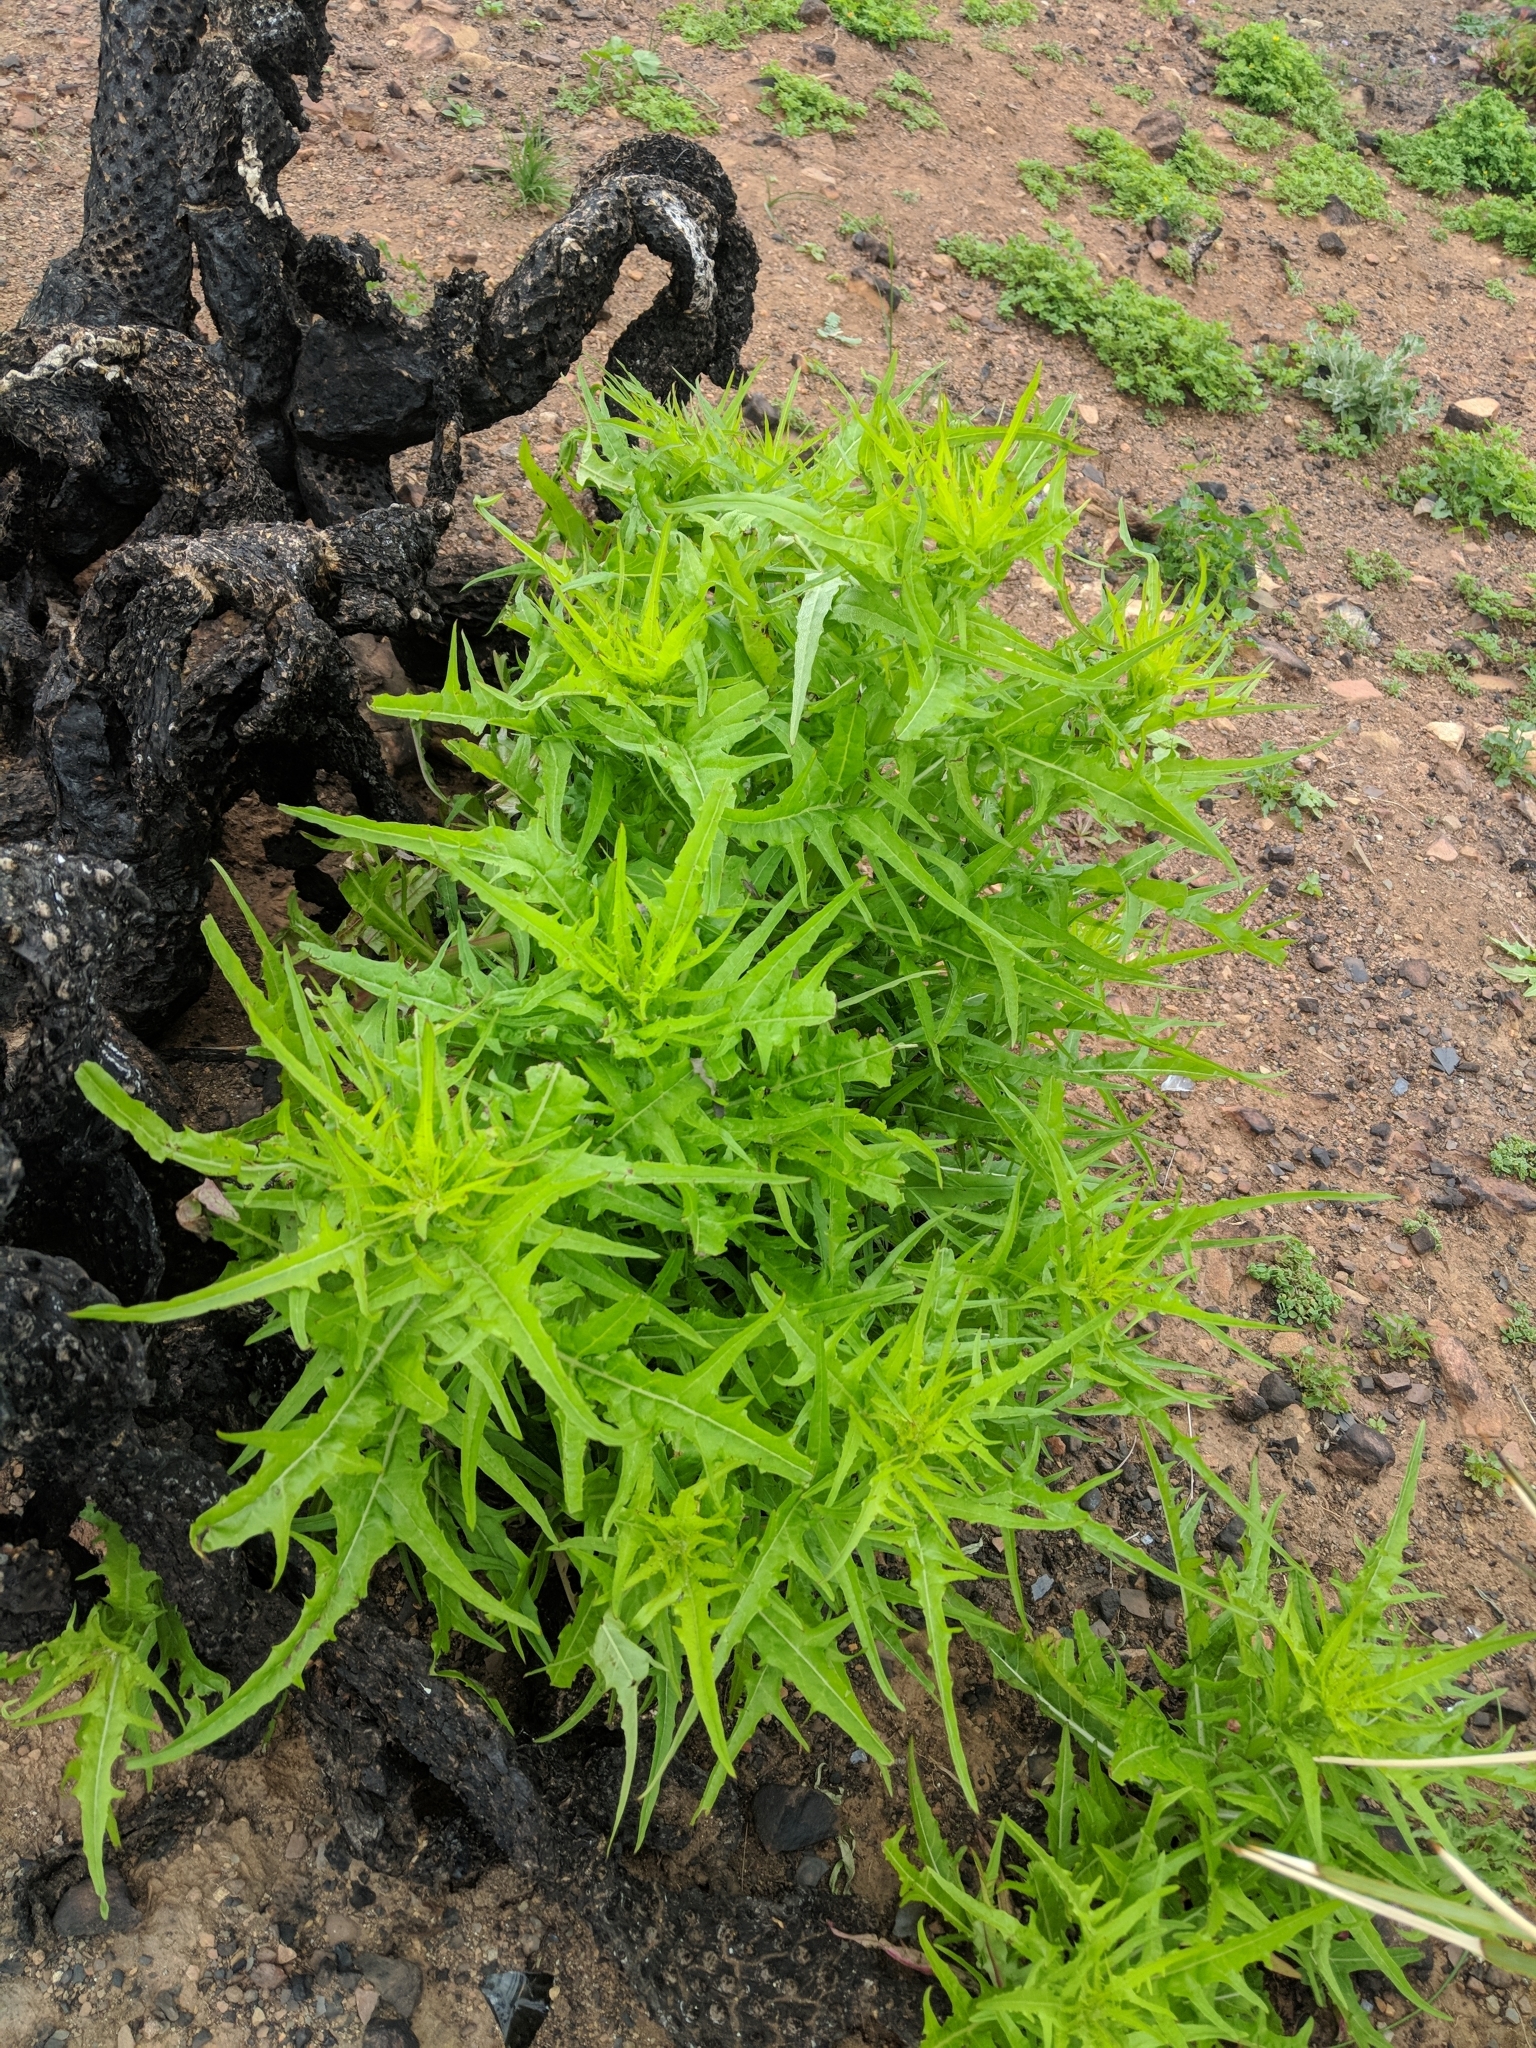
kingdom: Plantae
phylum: Tracheophyta
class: Magnoliopsida
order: Asterales
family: Asteraceae
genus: Malacothrix
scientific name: Malacothrix saxatilis
